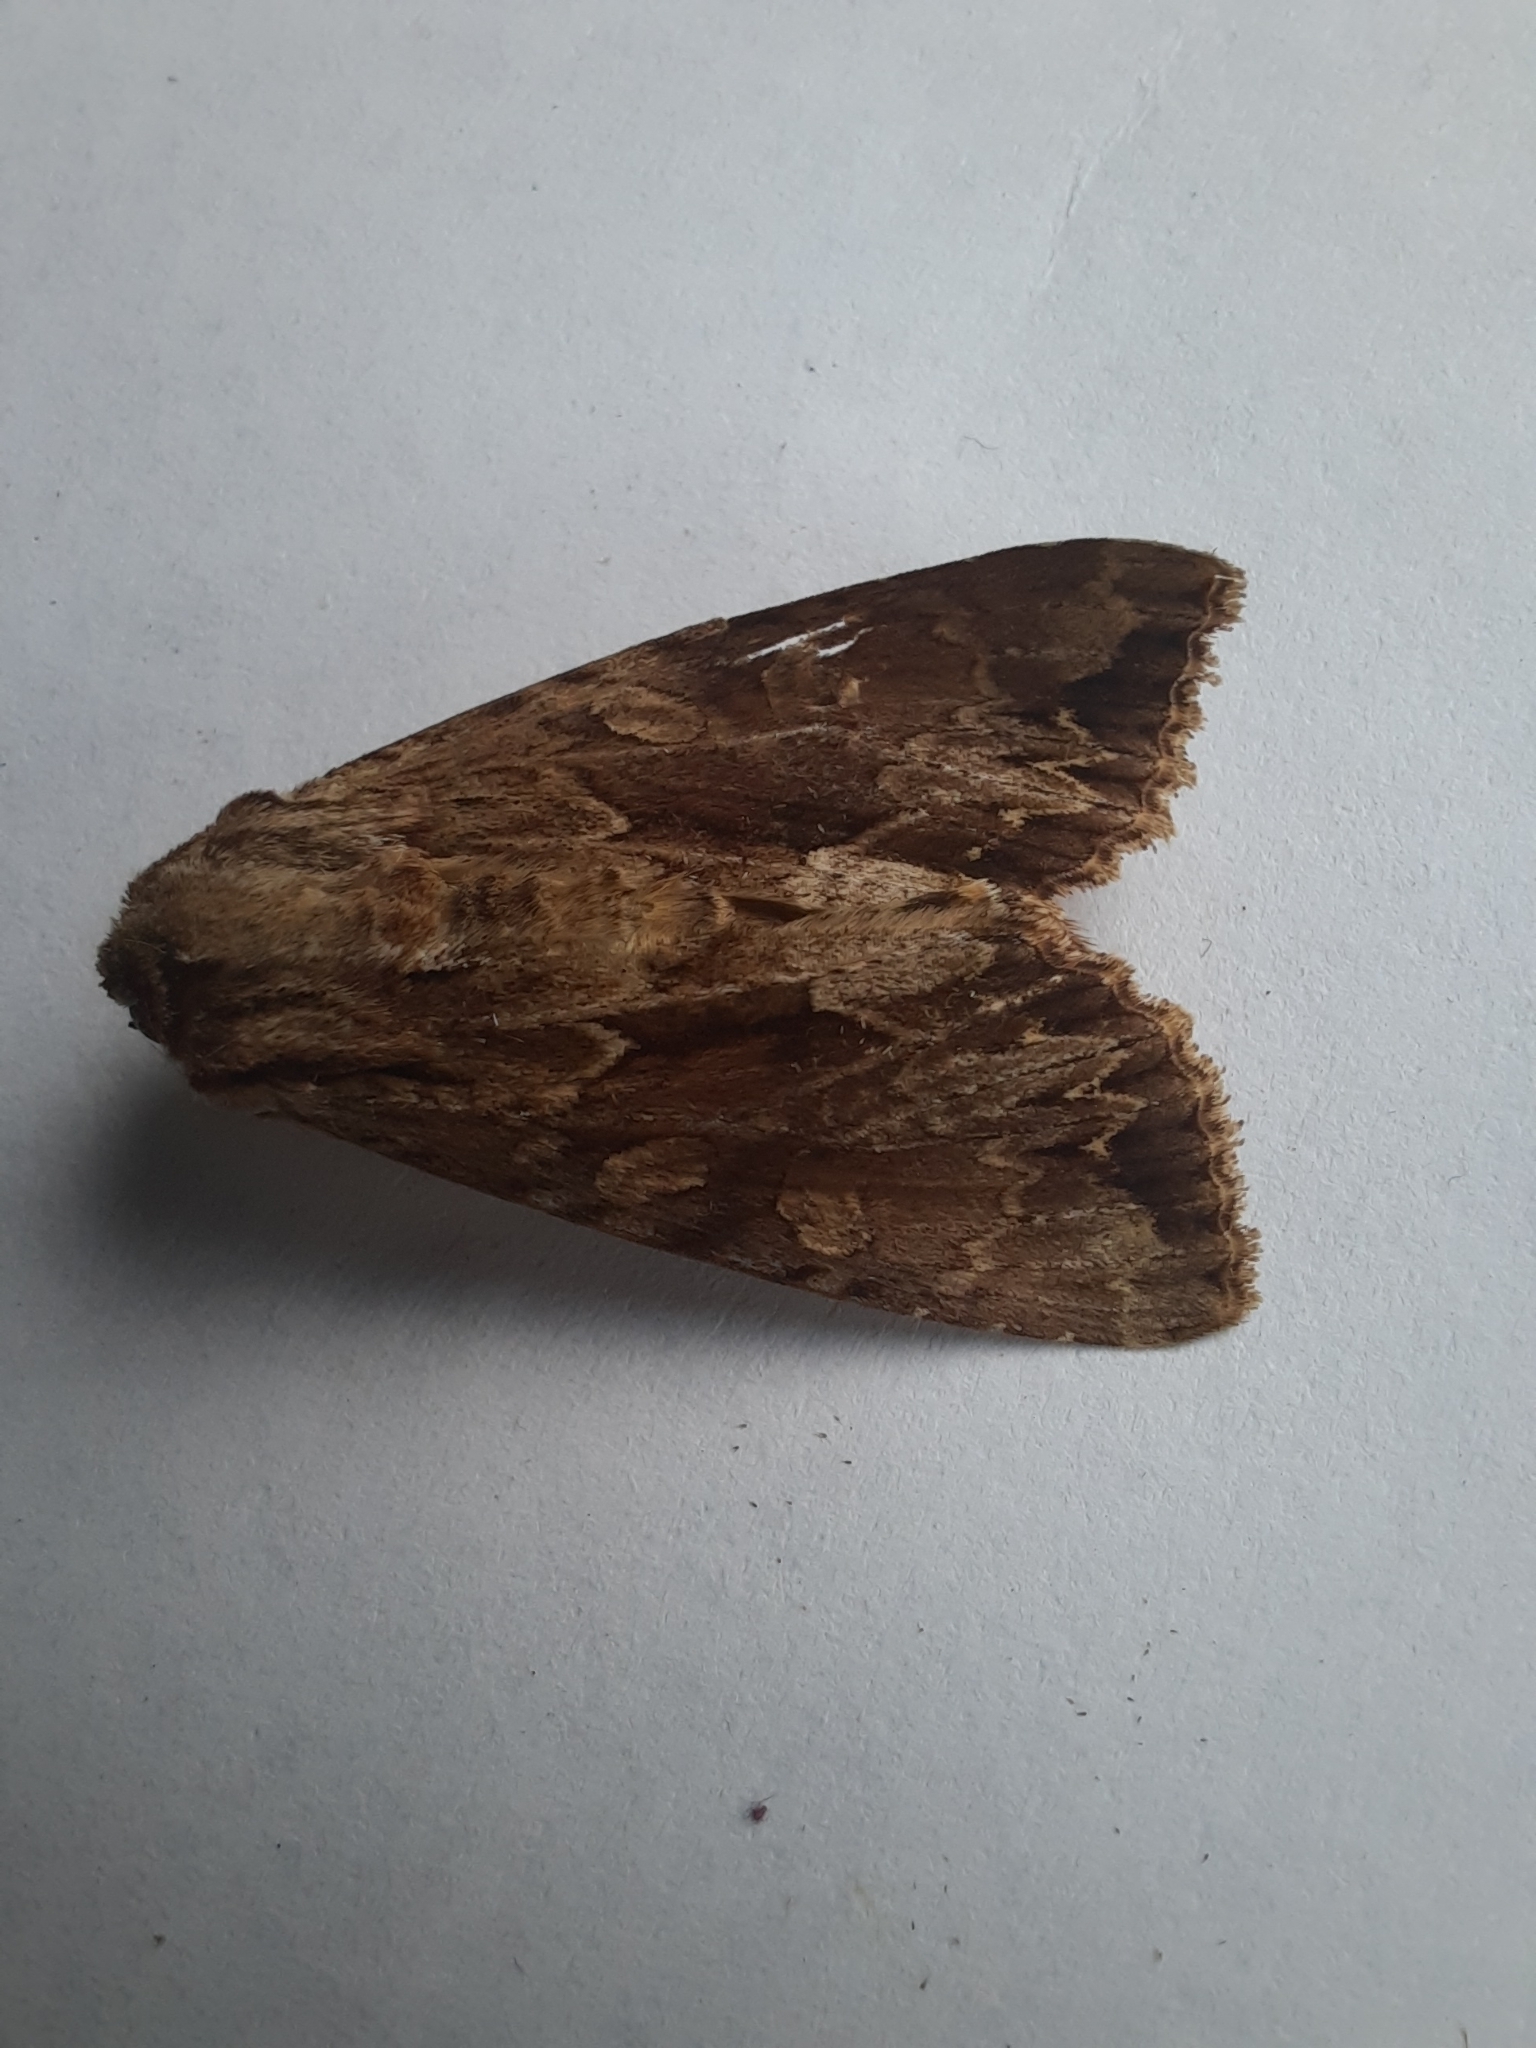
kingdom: Animalia
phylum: Arthropoda
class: Insecta
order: Lepidoptera
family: Noctuidae
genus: Apamea
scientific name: Apamea monoglypha
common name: Dark arches
